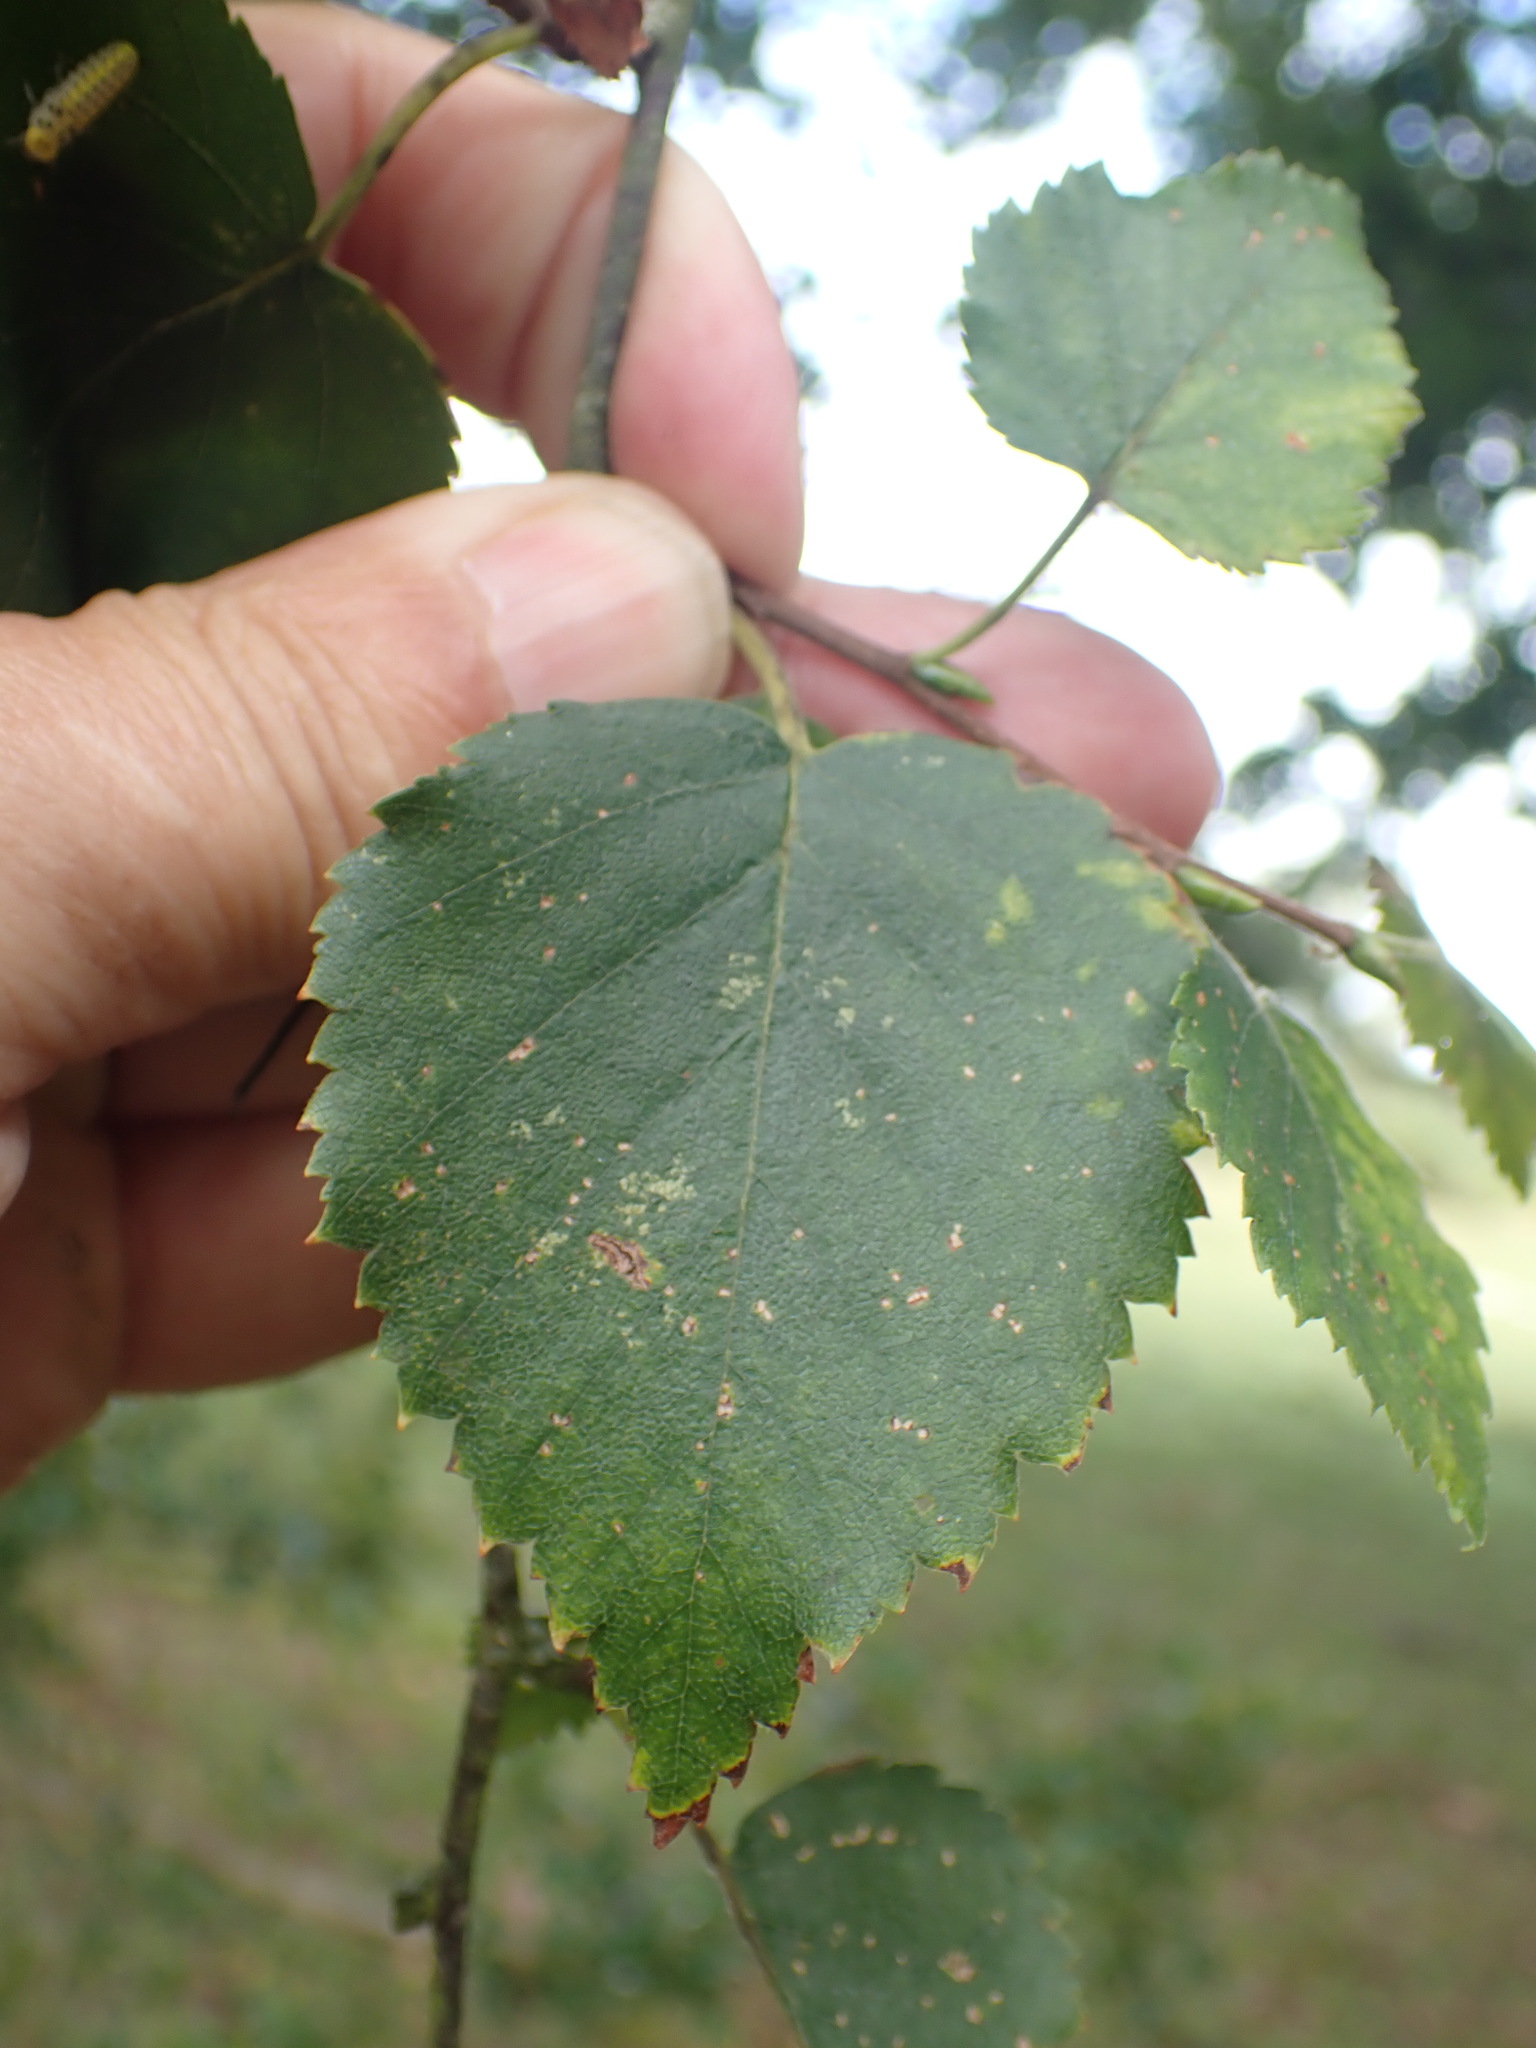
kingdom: Plantae
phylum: Tracheophyta
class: Magnoliopsida
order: Fagales
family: Betulaceae
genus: Betula
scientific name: Betula pendula
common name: Silver birch
